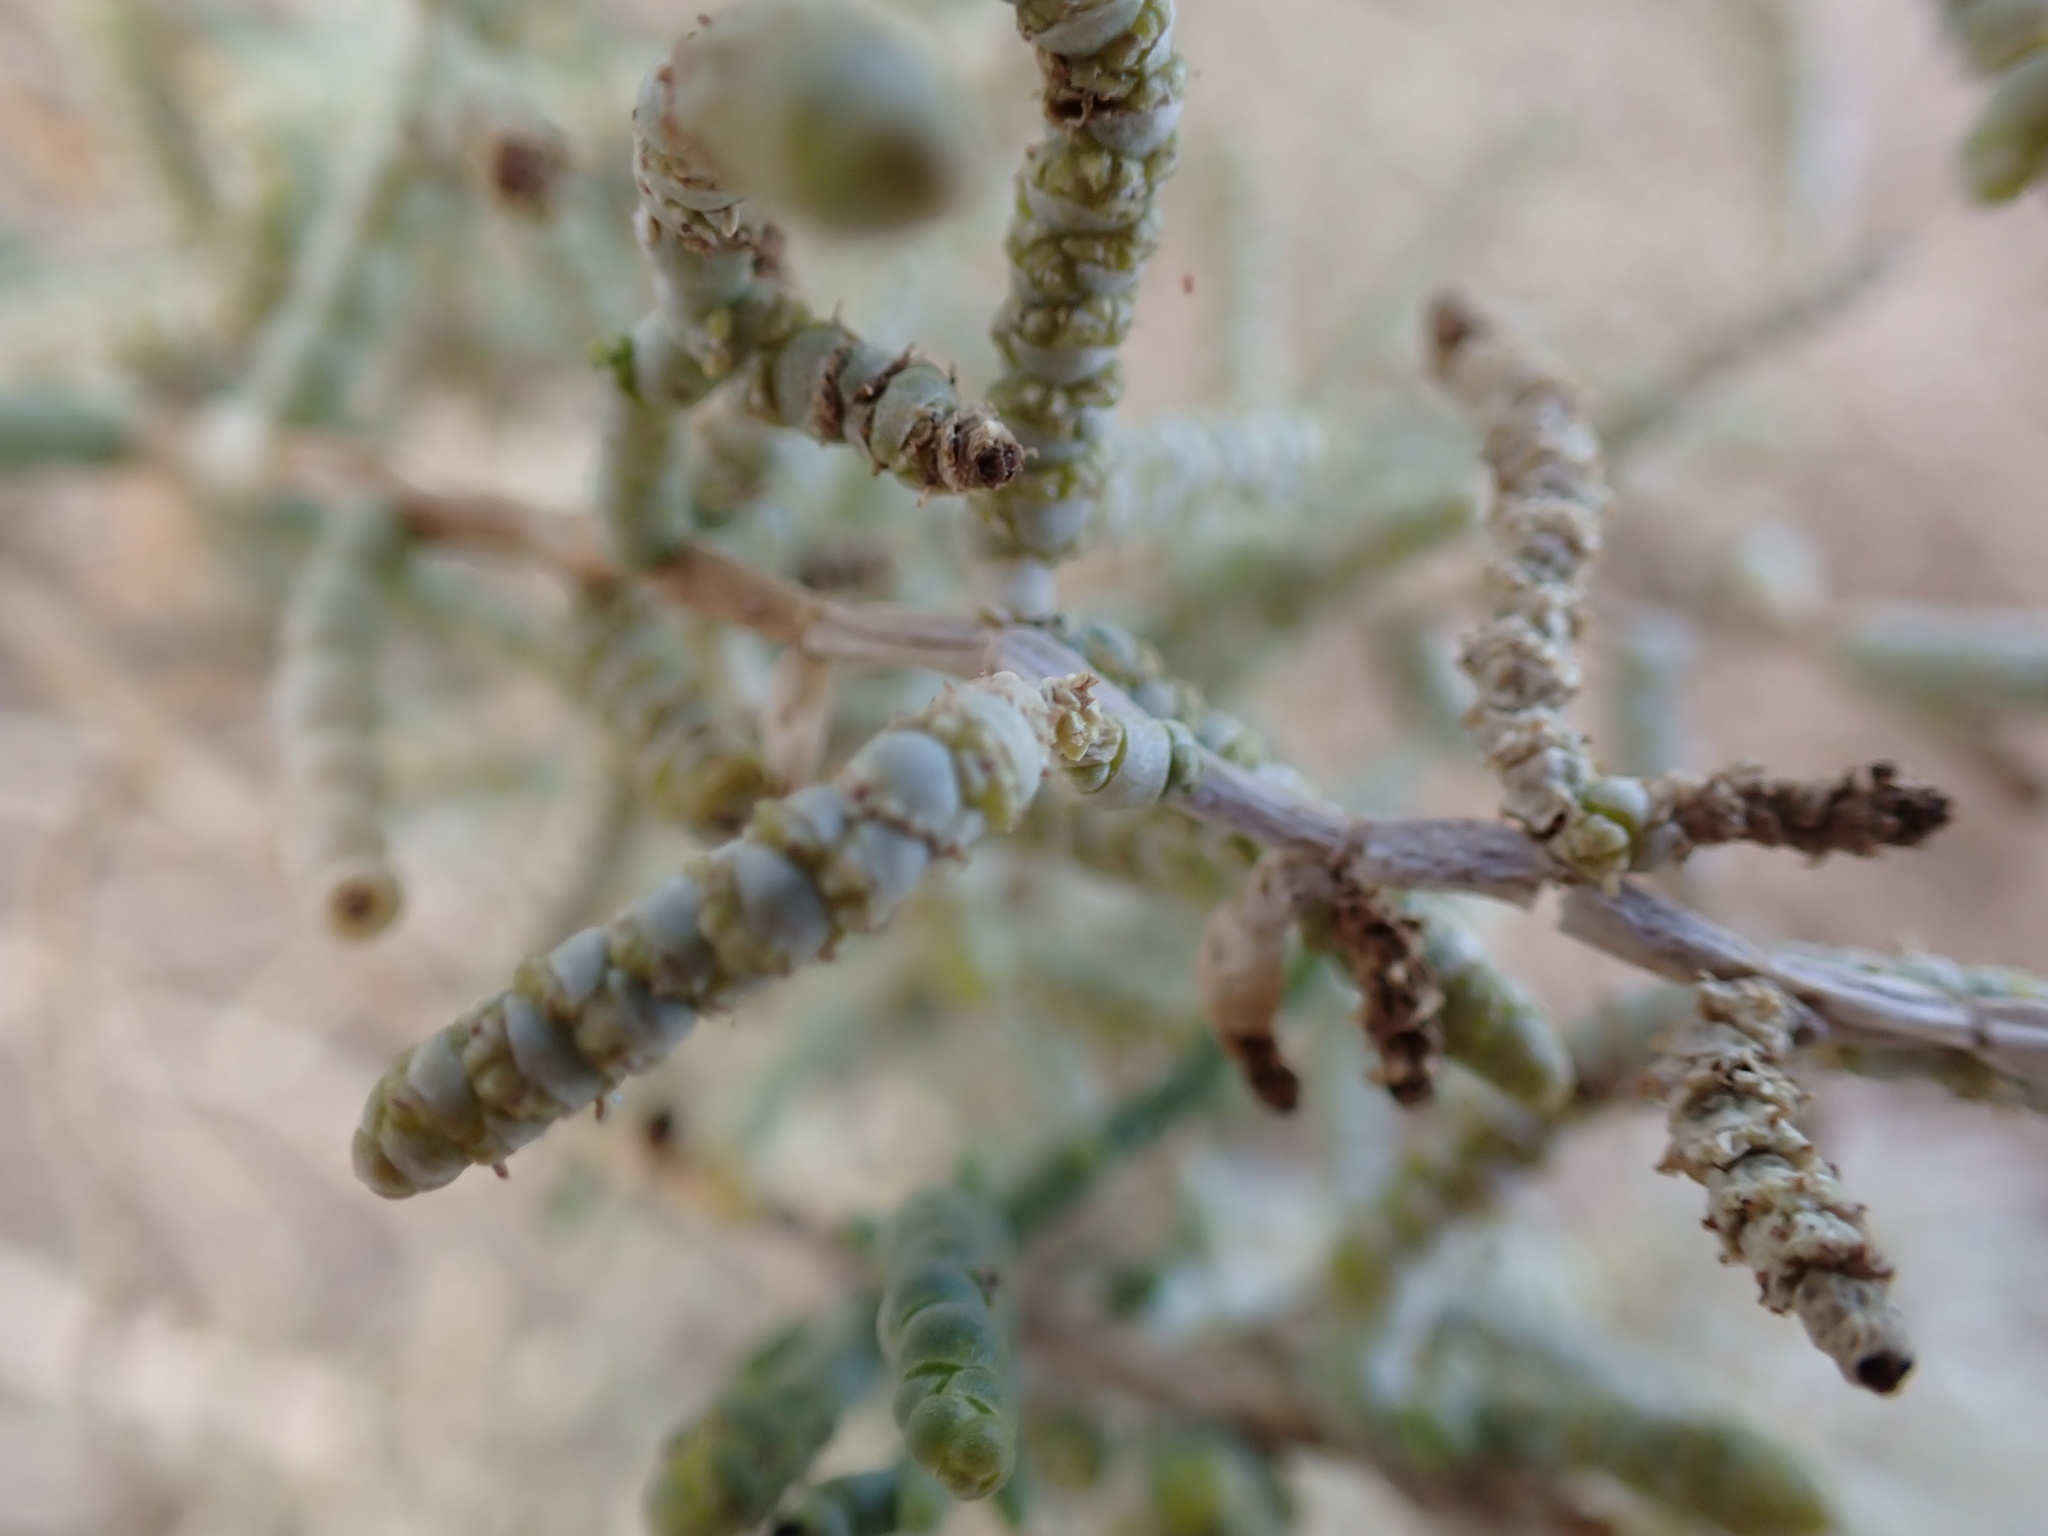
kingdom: Plantae
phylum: Tracheophyta
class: Magnoliopsida
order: Caryophyllales
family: Amaranthaceae
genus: Allenrolfea
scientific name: Allenrolfea occidentalis
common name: Iodine-bush
